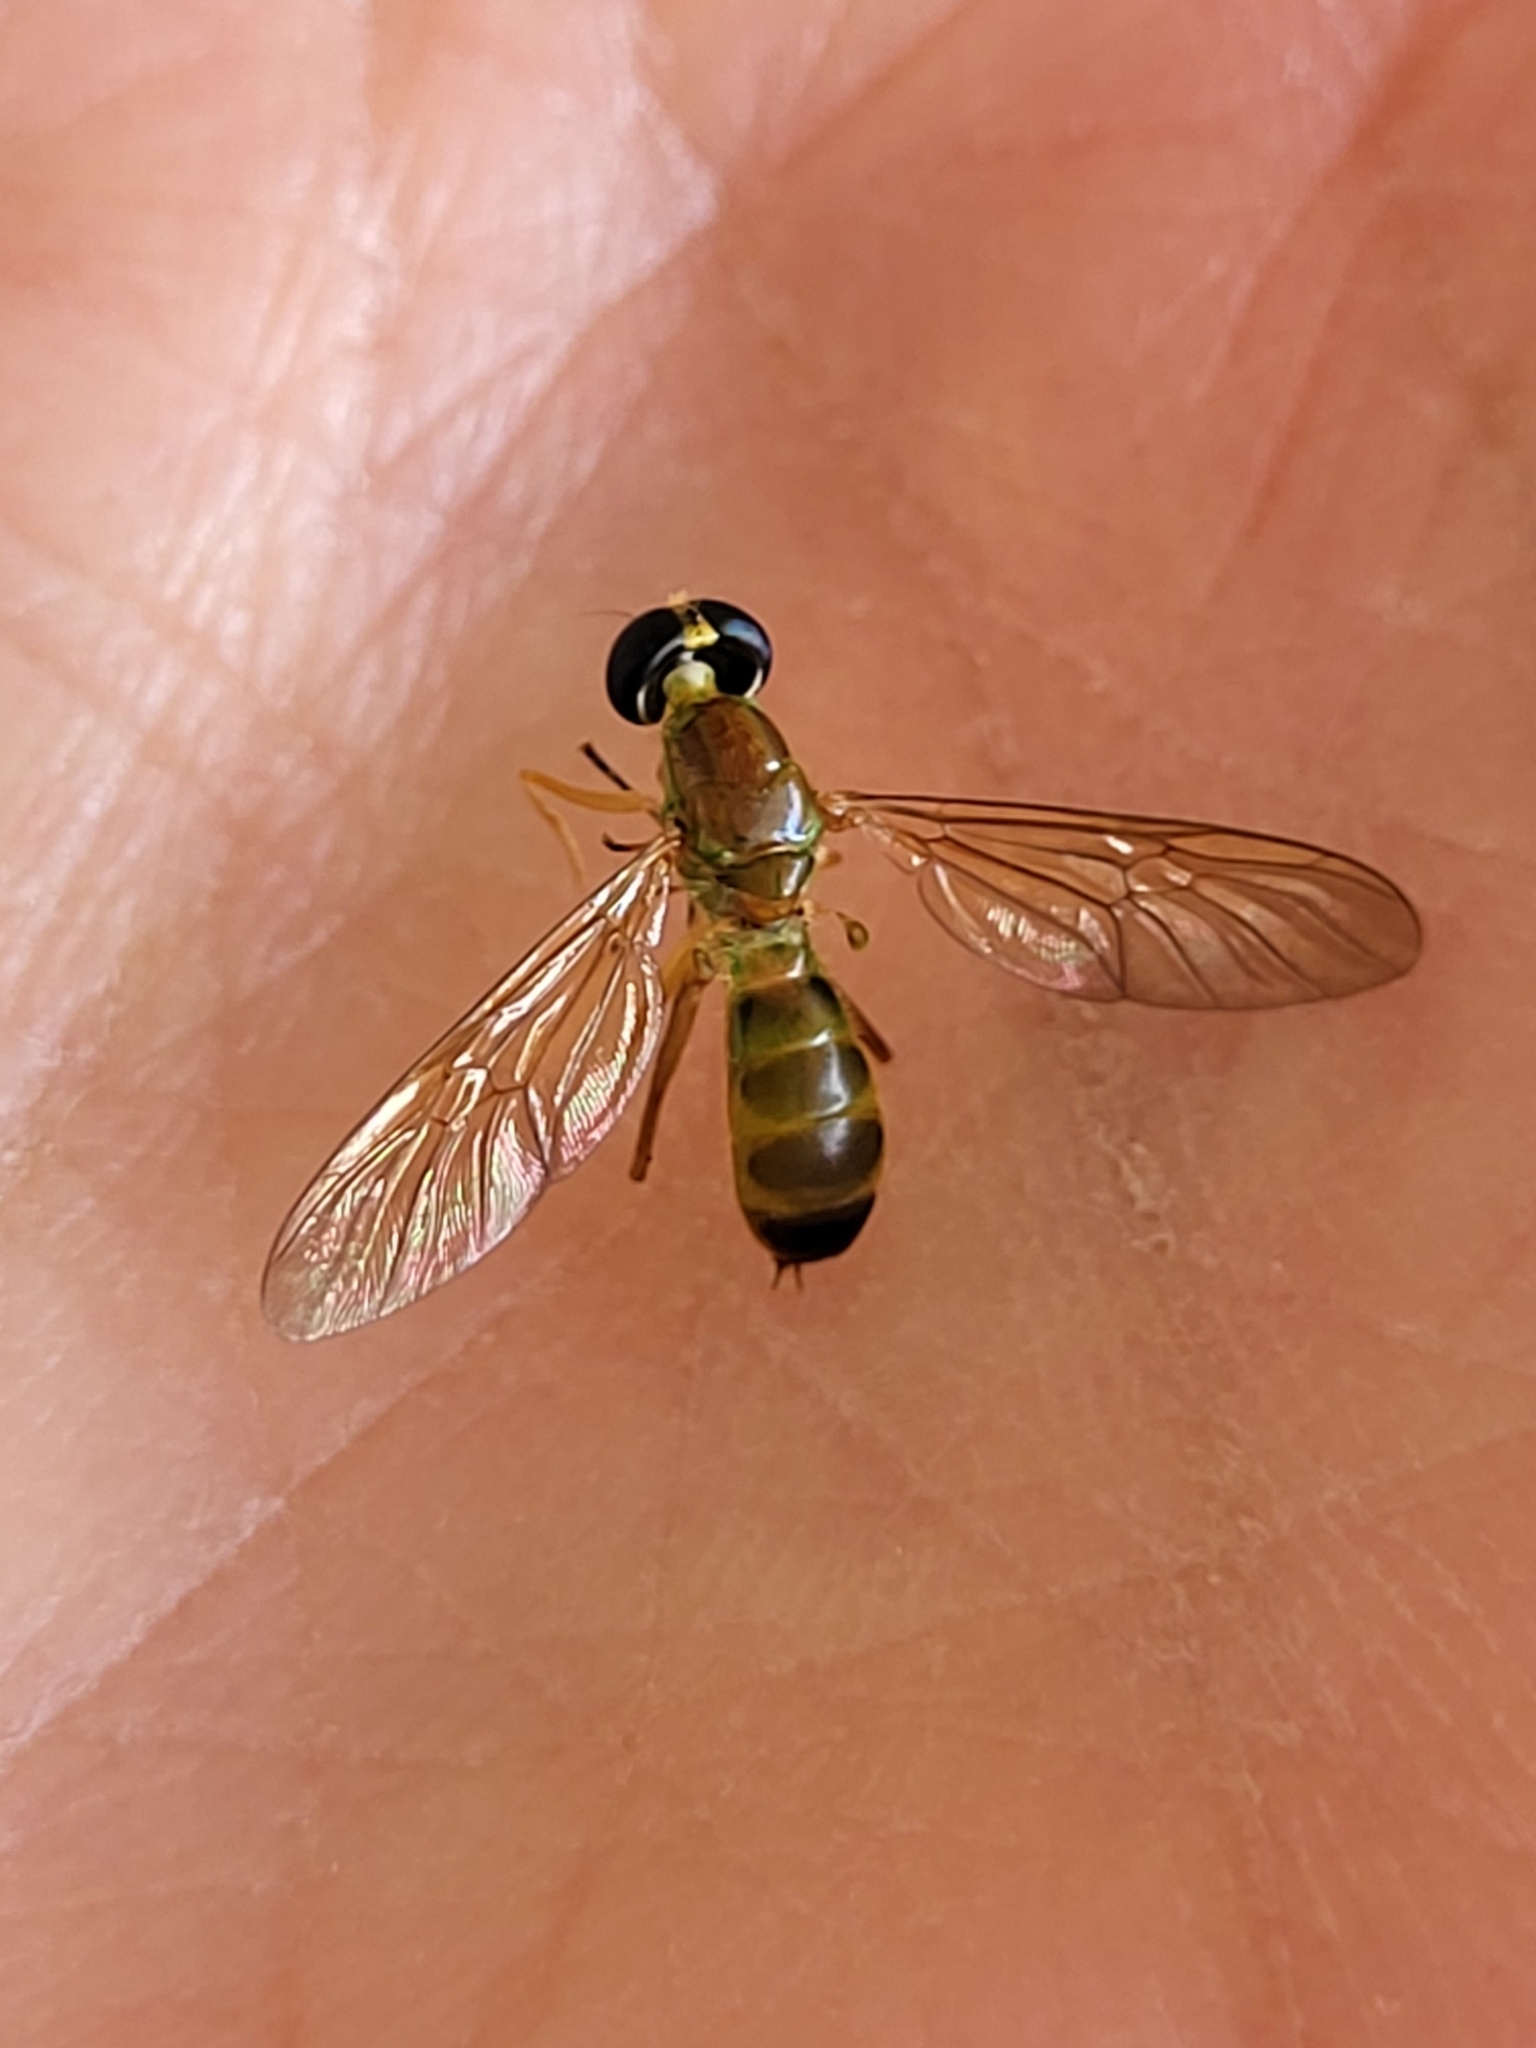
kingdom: Animalia
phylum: Arthropoda
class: Insecta
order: Diptera
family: Stratiomyidae
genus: Ptecticus
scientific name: Ptecticus trivittatus
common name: Compost fly
